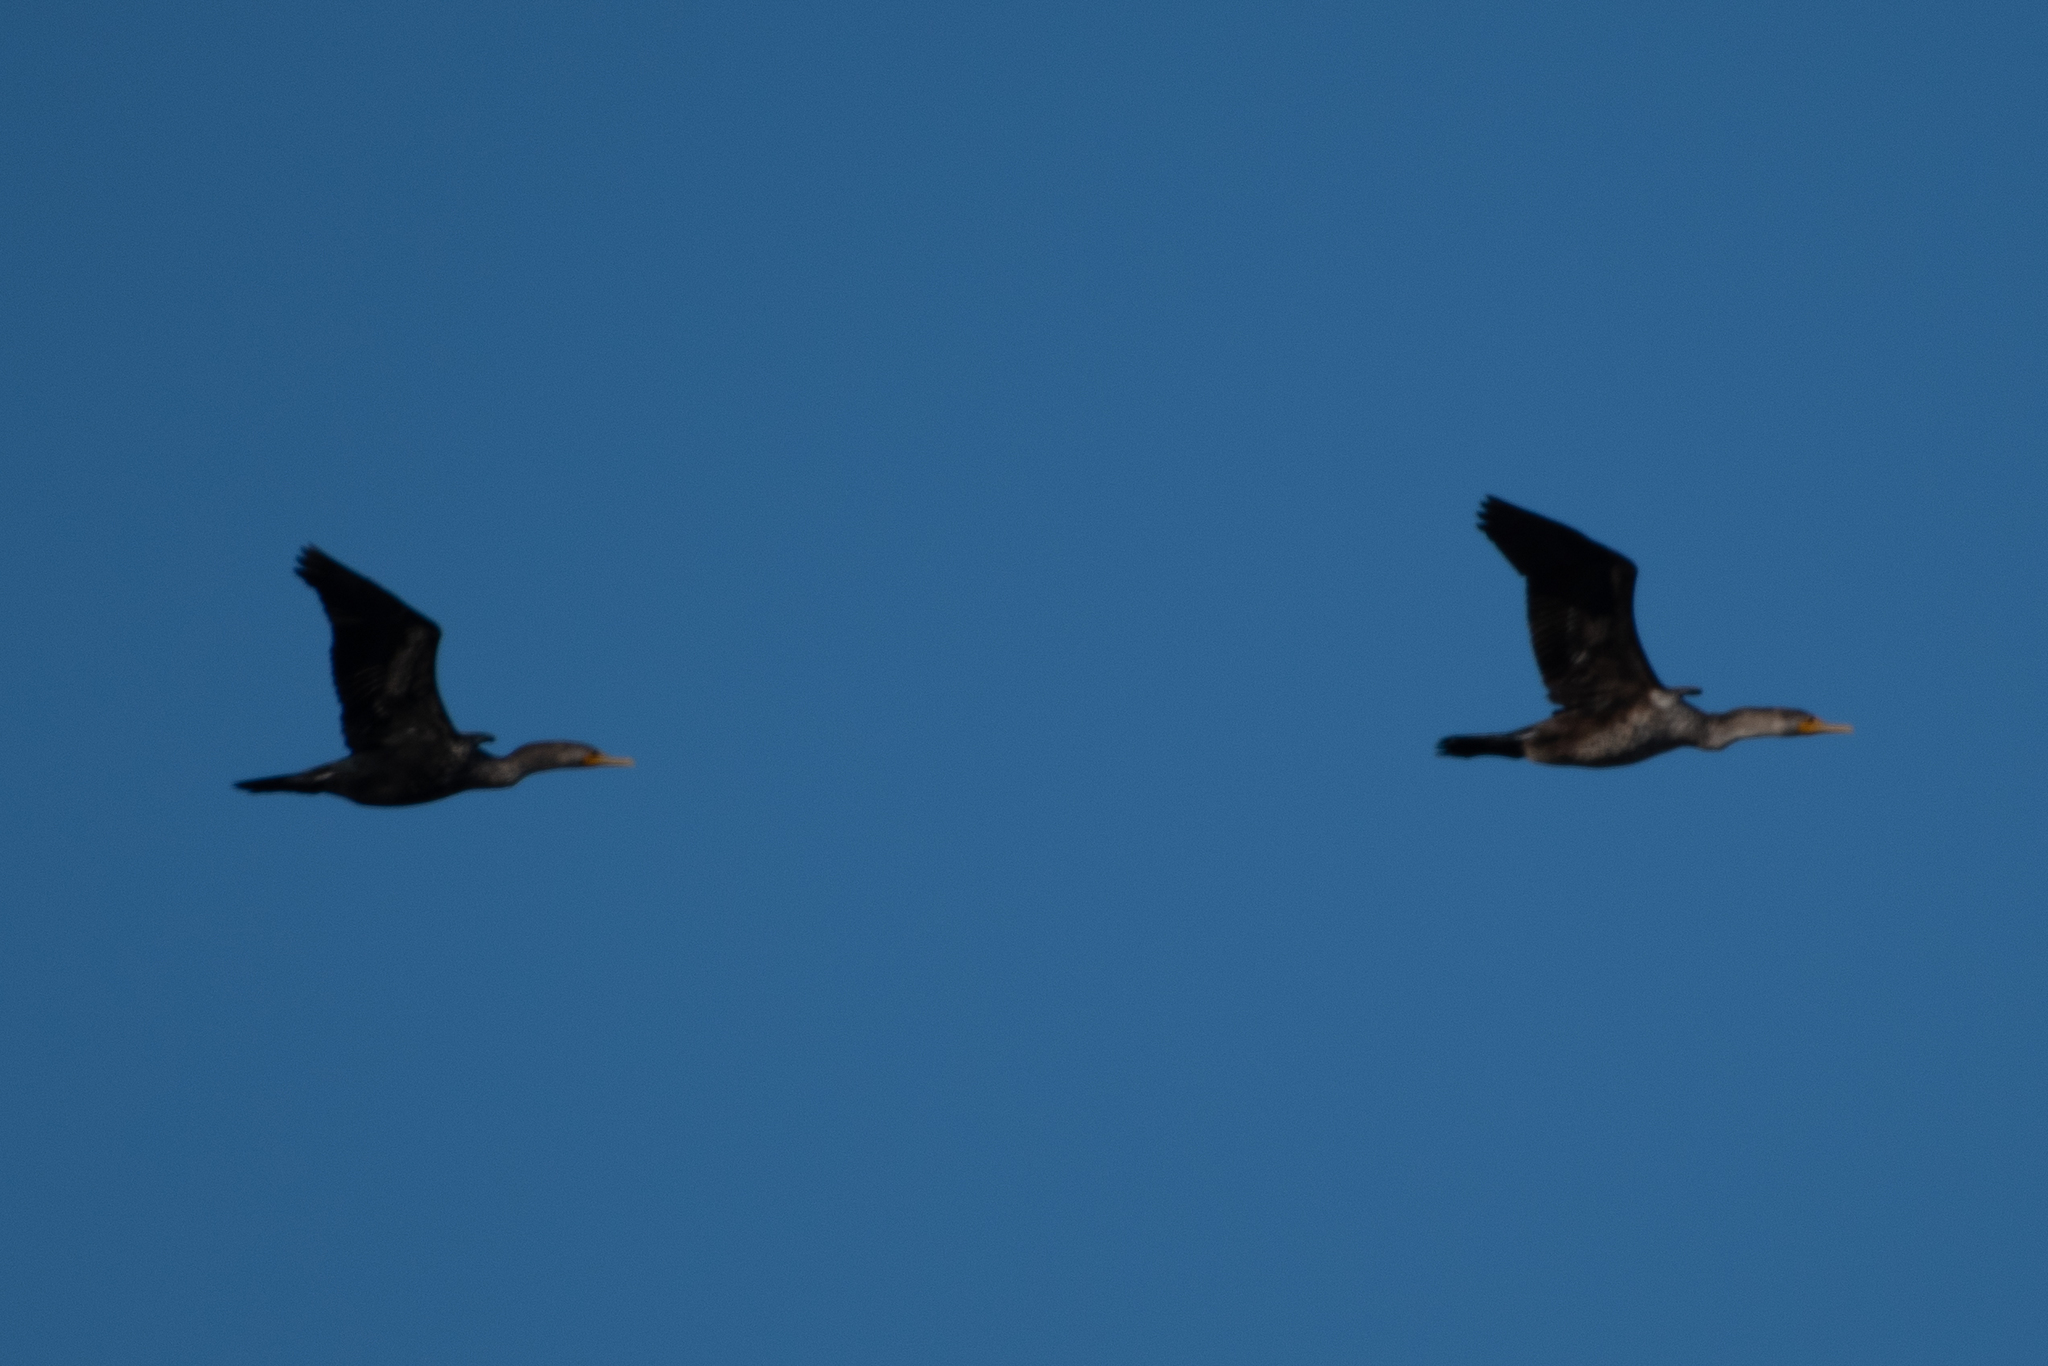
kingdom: Animalia
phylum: Chordata
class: Aves
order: Suliformes
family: Phalacrocoracidae
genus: Phalacrocorax
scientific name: Phalacrocorax auritus
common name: Double-crested cormorant
